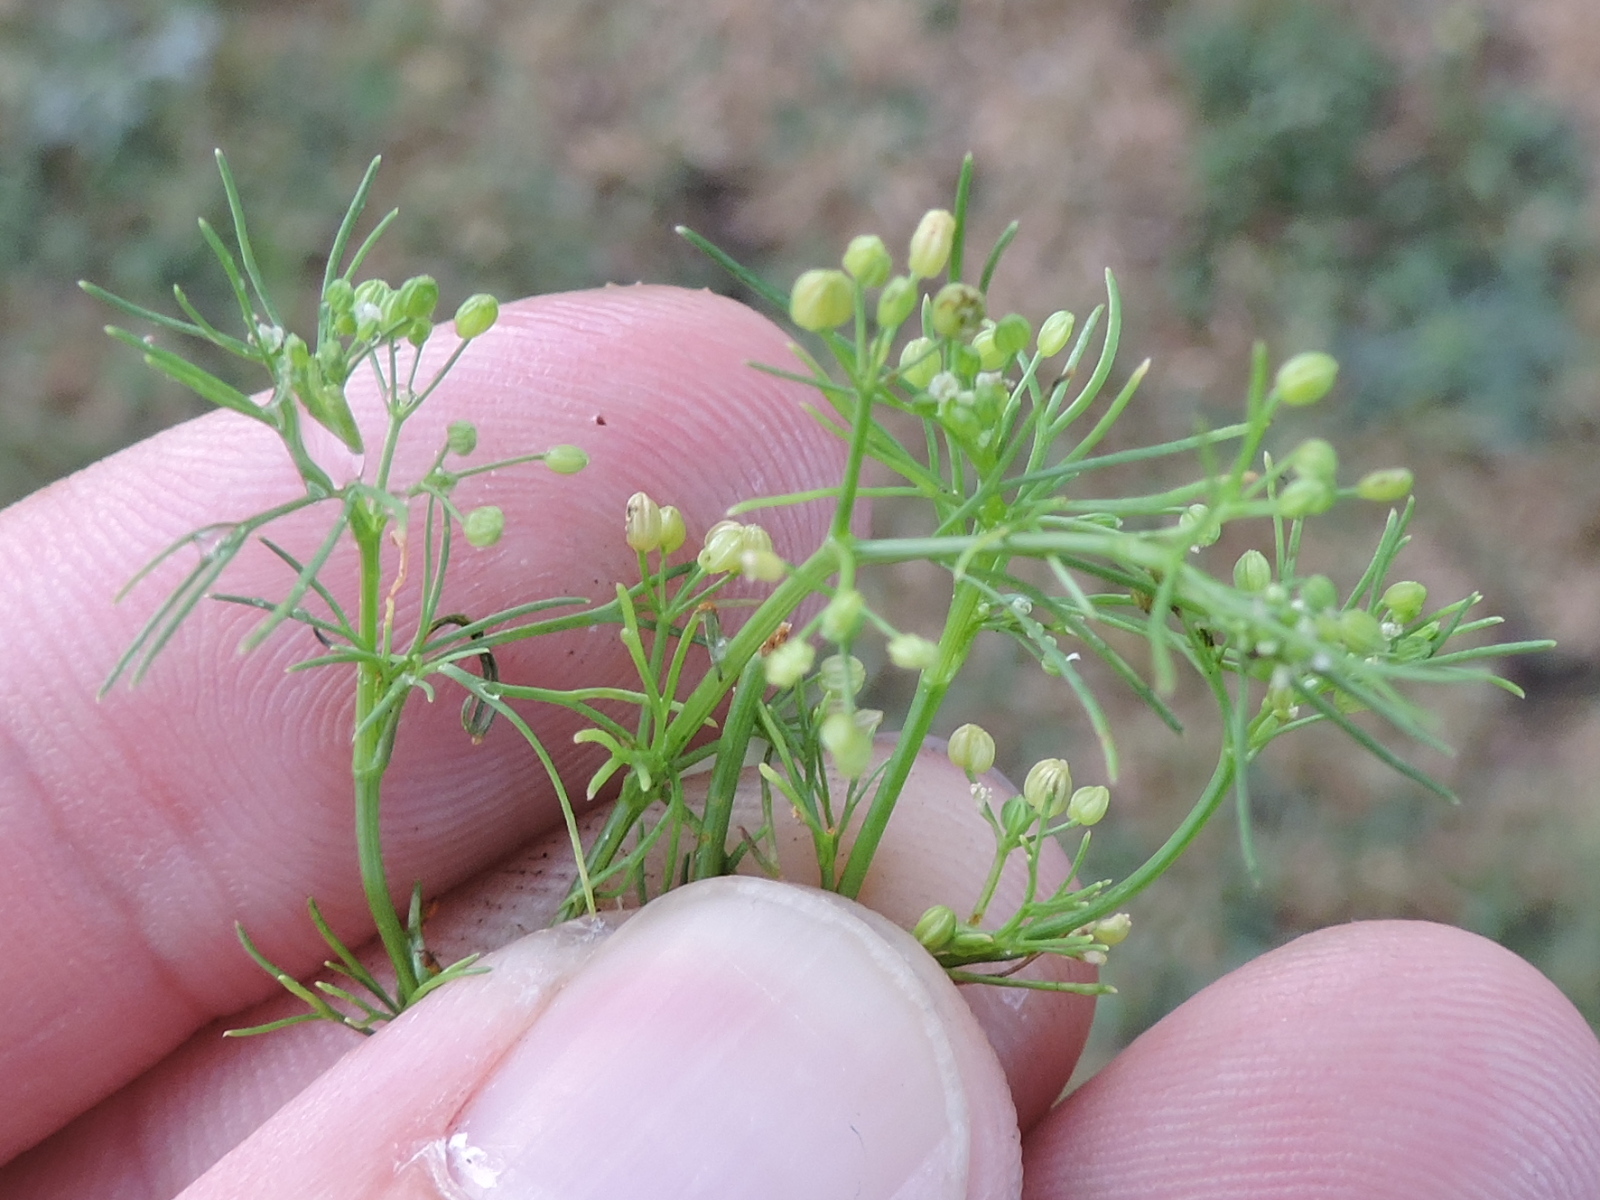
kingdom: Plantae
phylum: Tracheophyta
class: Magnoliopsida
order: Apiales
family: Apiaceae
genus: Cyclospermum
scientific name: Cyclospermum leptophyllum
